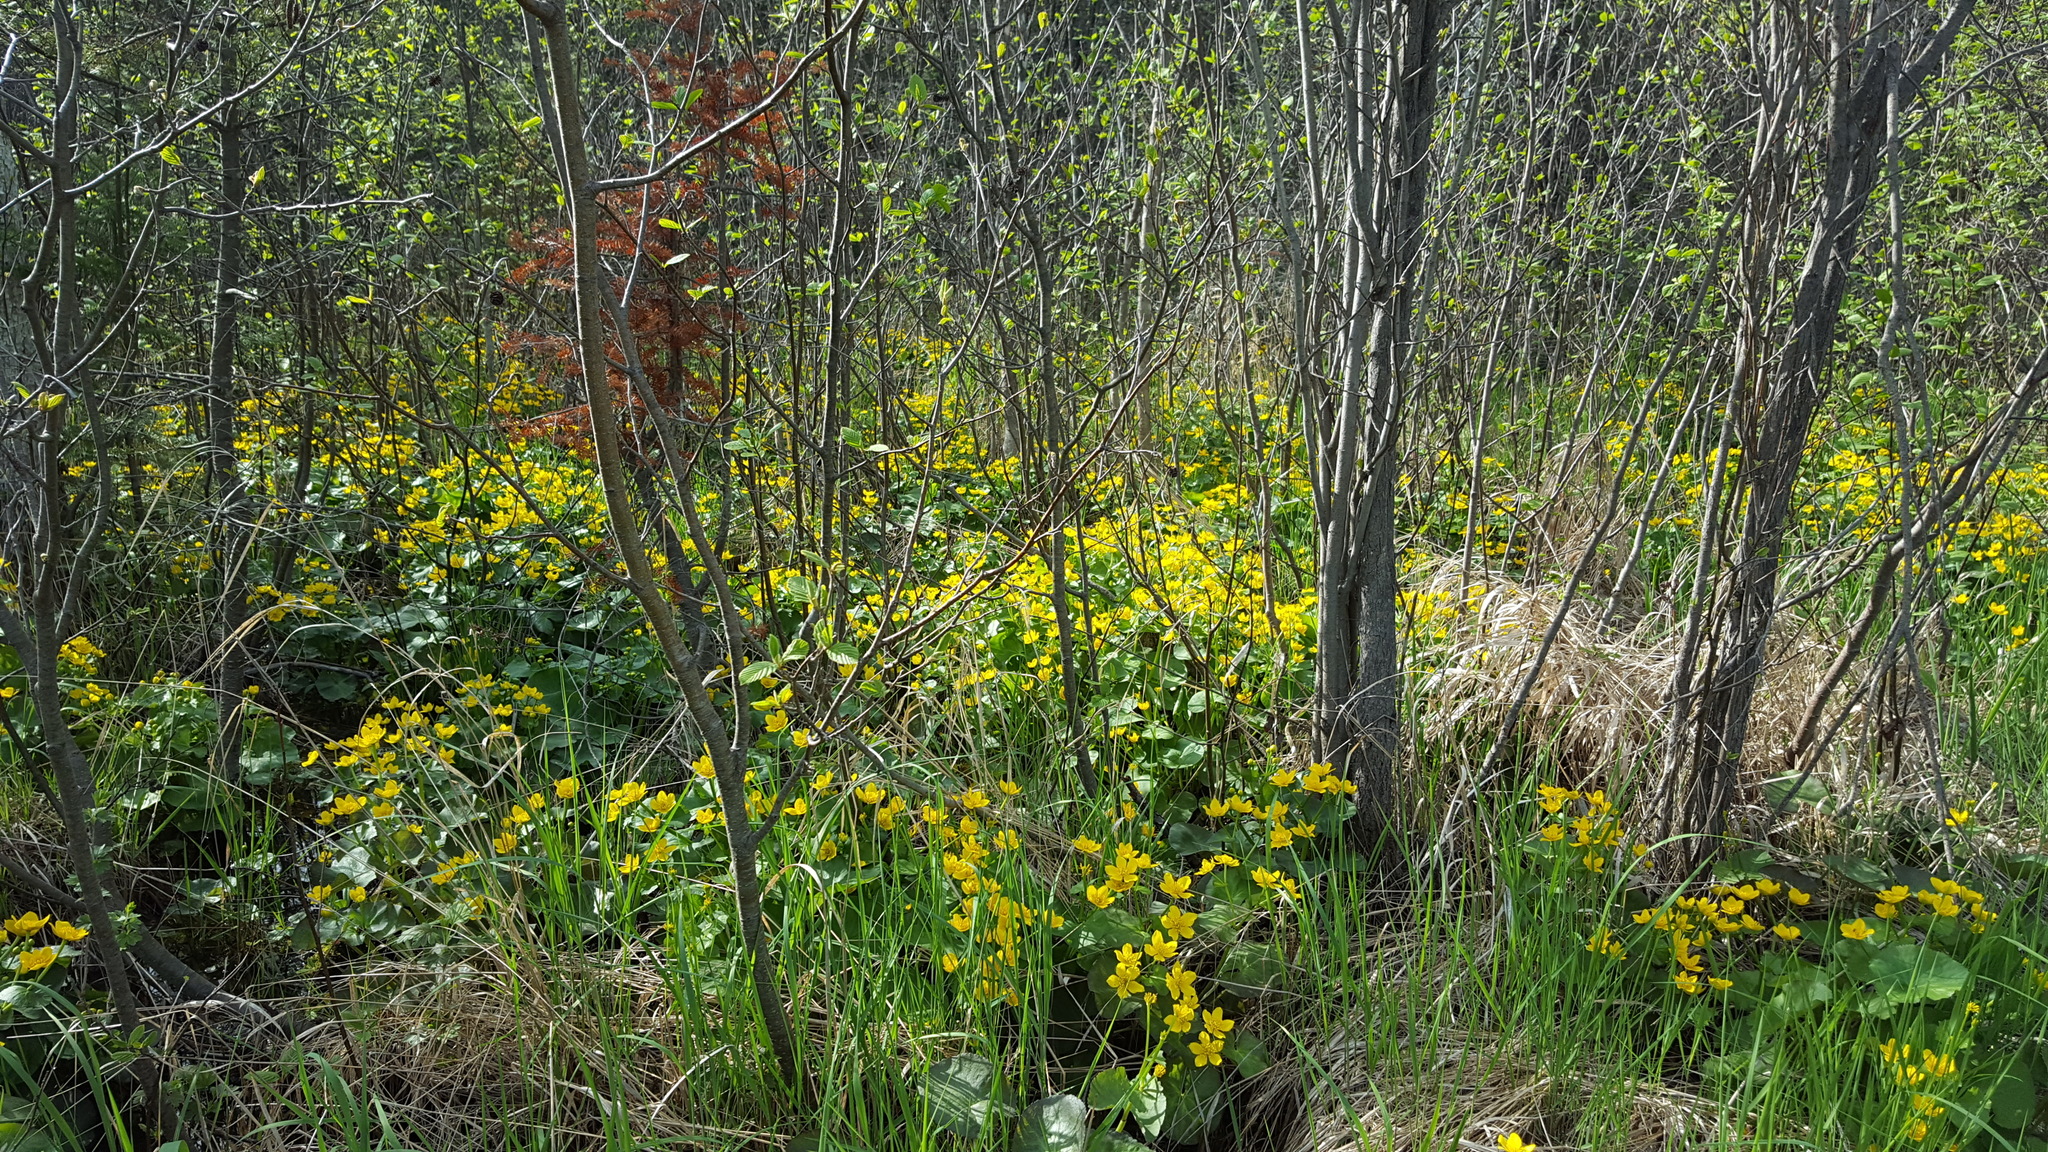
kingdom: Plantae
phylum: Tracheophyta
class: Magnoliopsida
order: Ranunculales
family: Ranunculaceae
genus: Caltha
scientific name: Caltha palustris
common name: Marsh marigold
